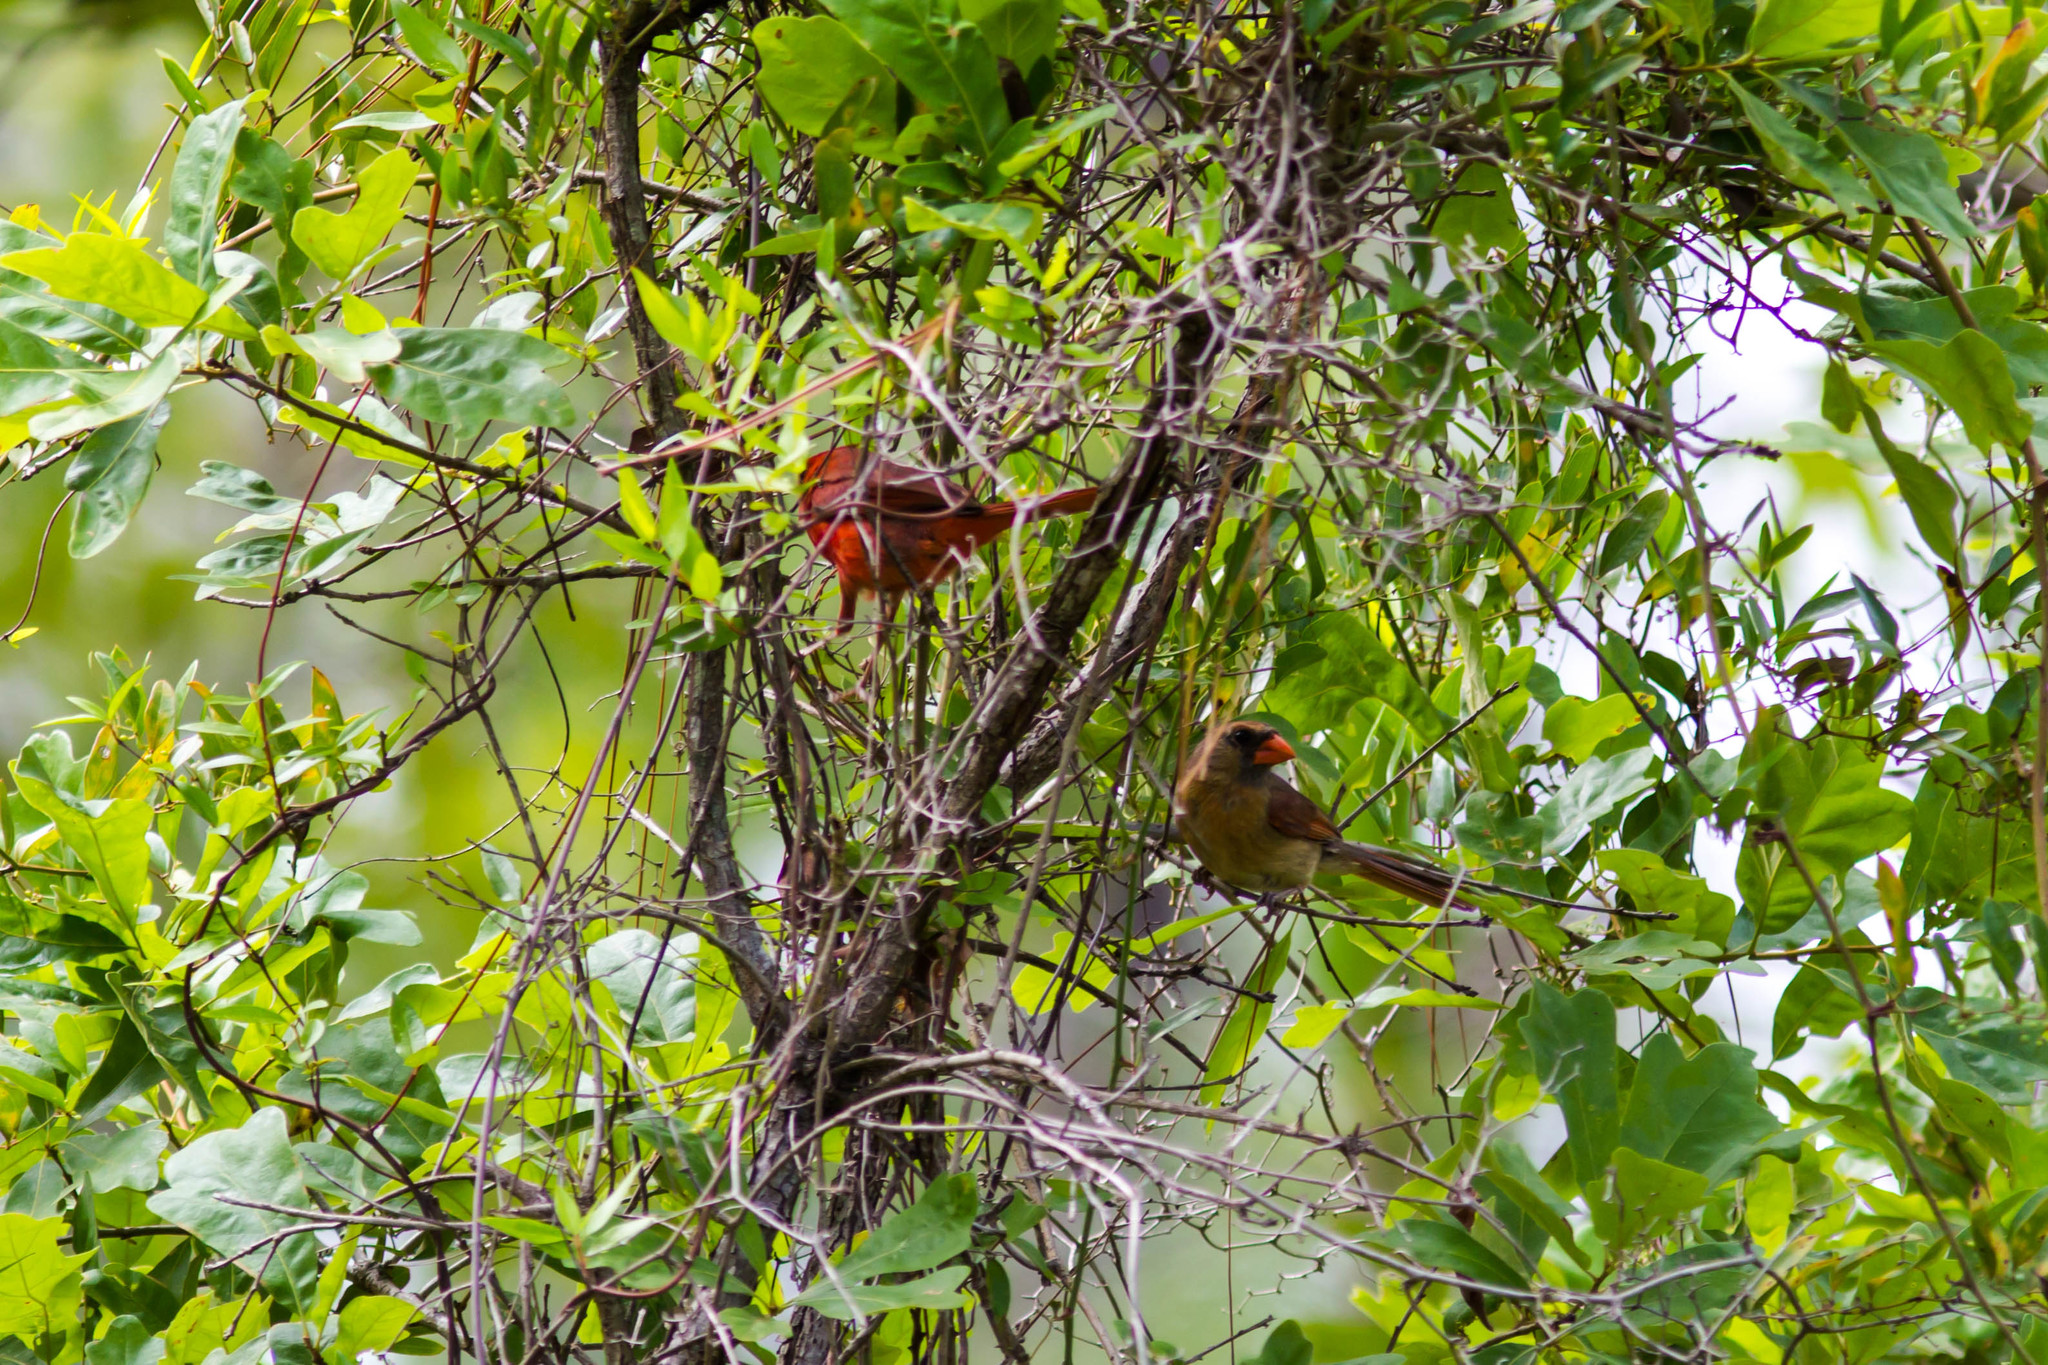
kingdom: Animalia
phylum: Chordata
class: Aves
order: Passeriformes
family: Cardinalidae
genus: Cardinalis
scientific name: Cardinalis cardinalis
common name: Northern cardinal
